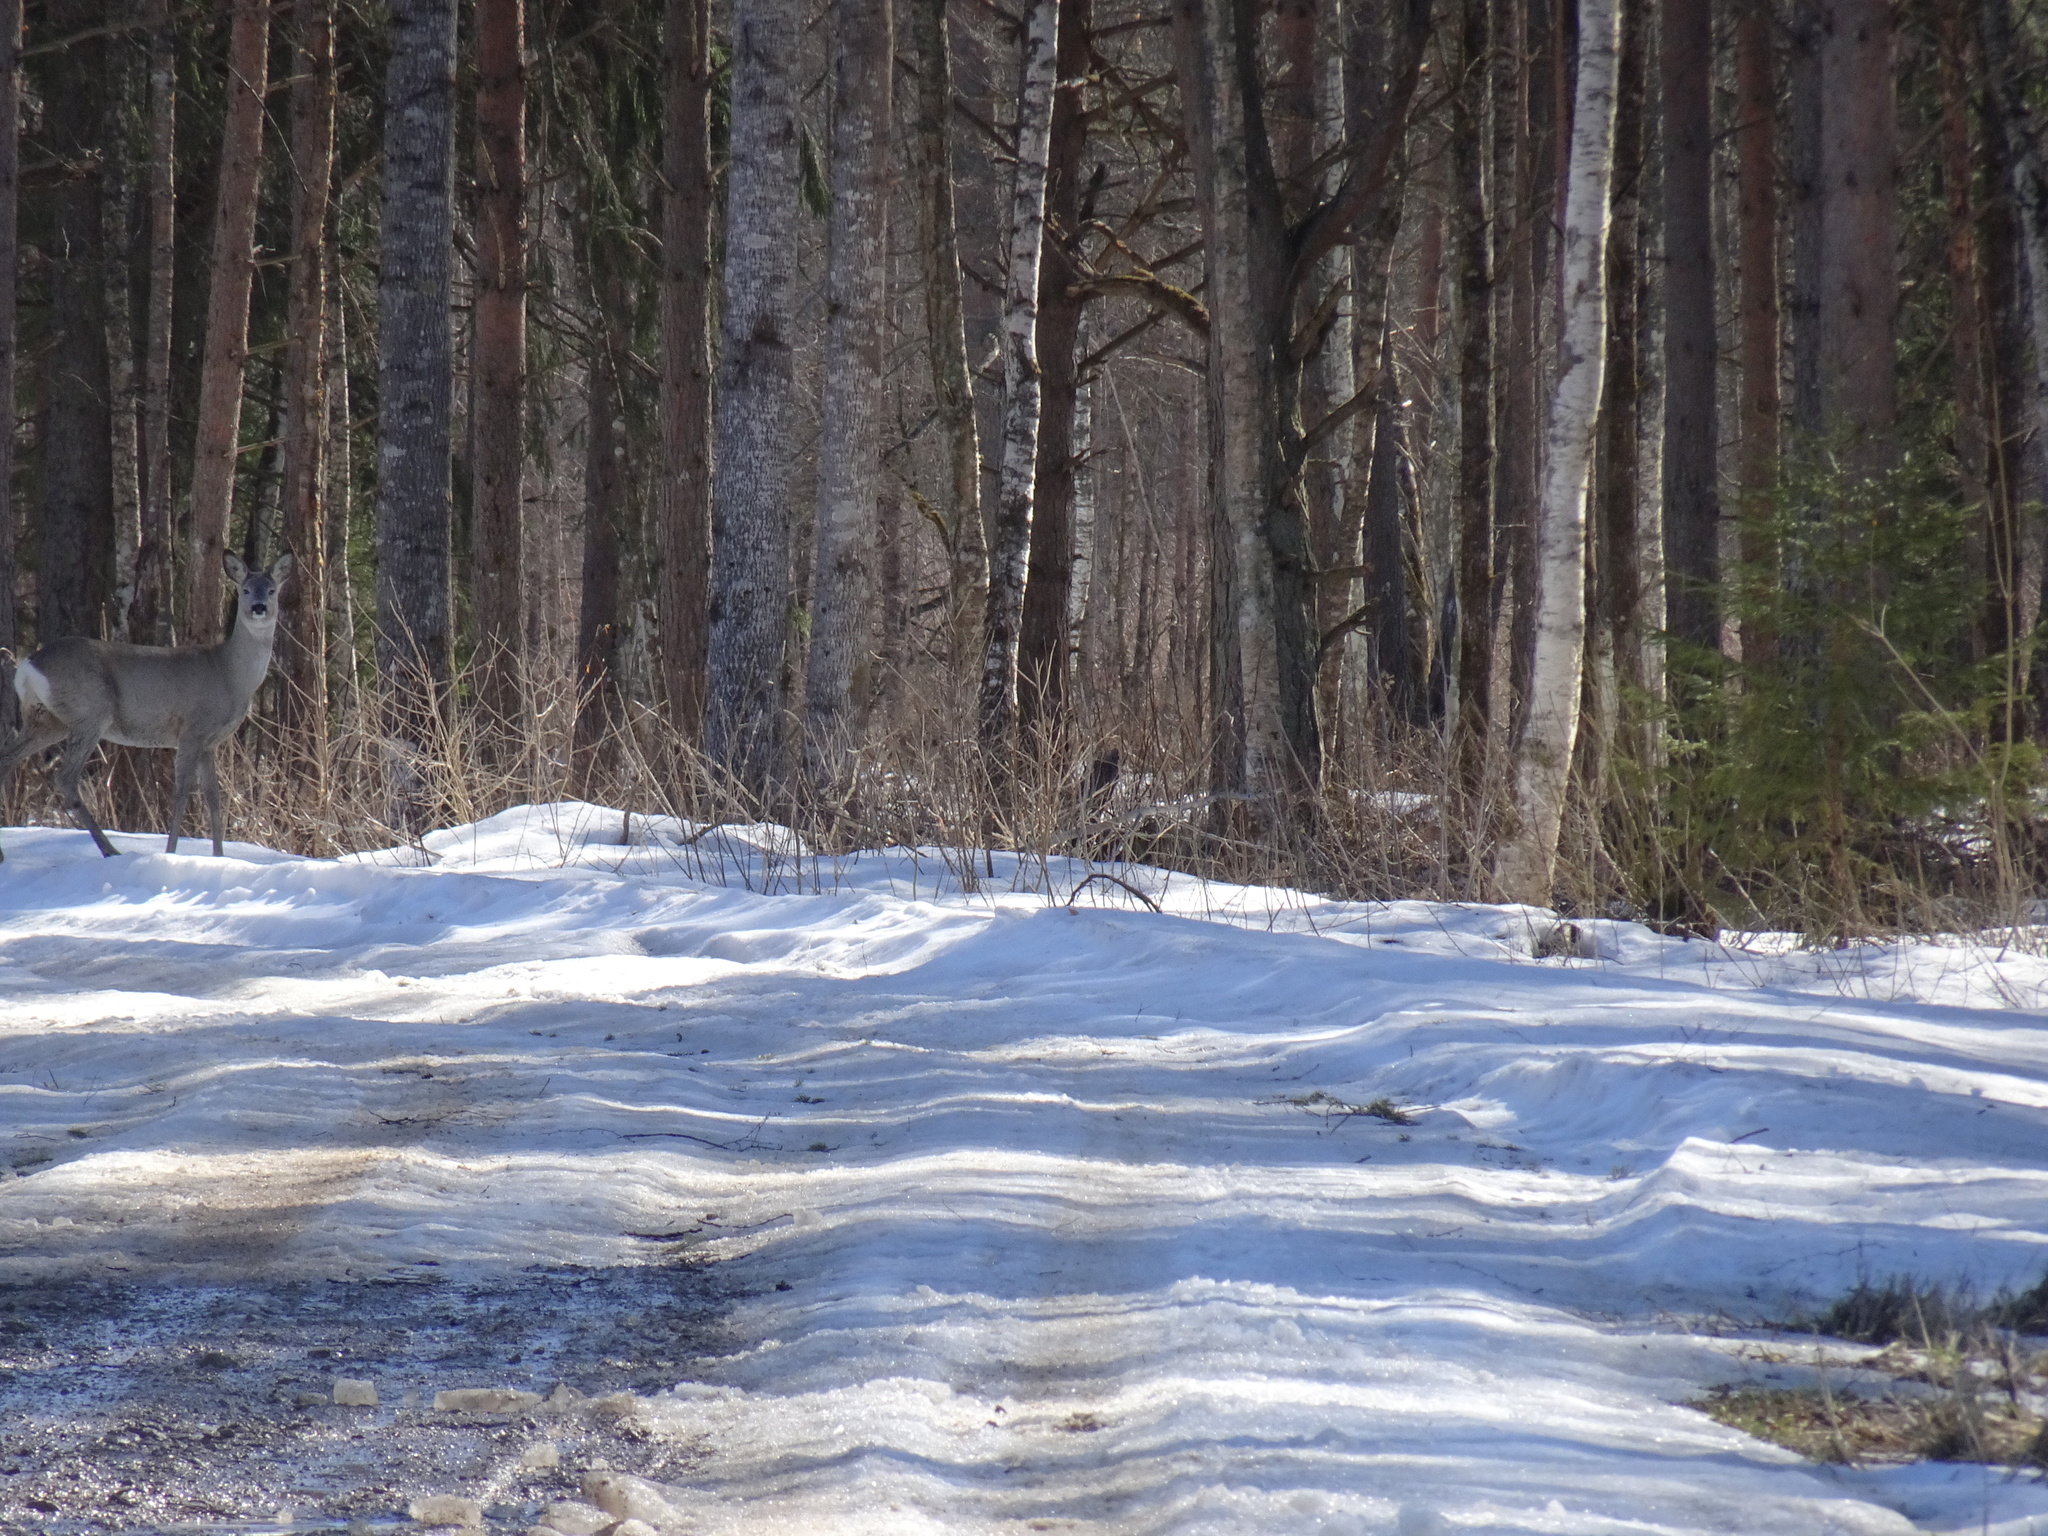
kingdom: Animalia
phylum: Chordata
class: Mammalia
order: Artiodactyla
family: Cervidae
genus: Capreolus
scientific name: Capreolus capreolus
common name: Western roe deer
